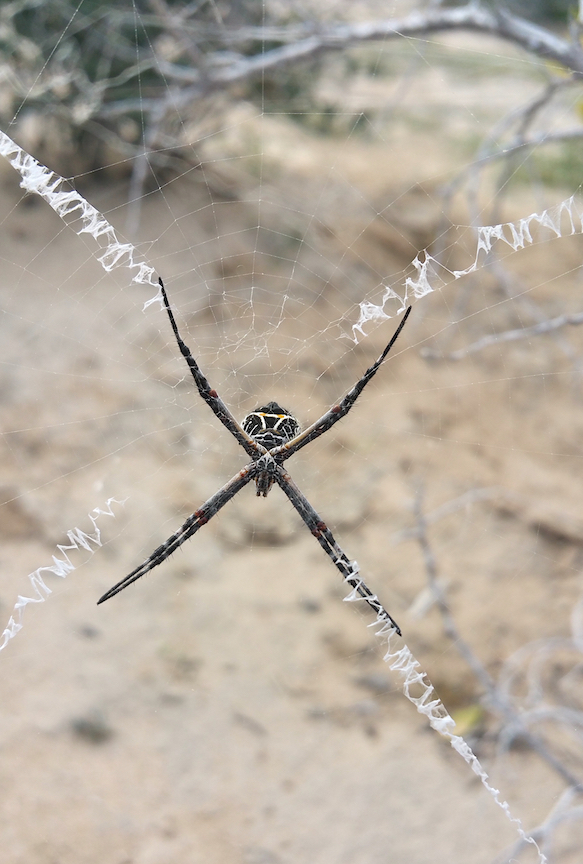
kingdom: Animalia
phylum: Arthropoda
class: Arachnida
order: Araneae
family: Araneidae
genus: Argiope
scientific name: Argiope argentata
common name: Orb weavers
